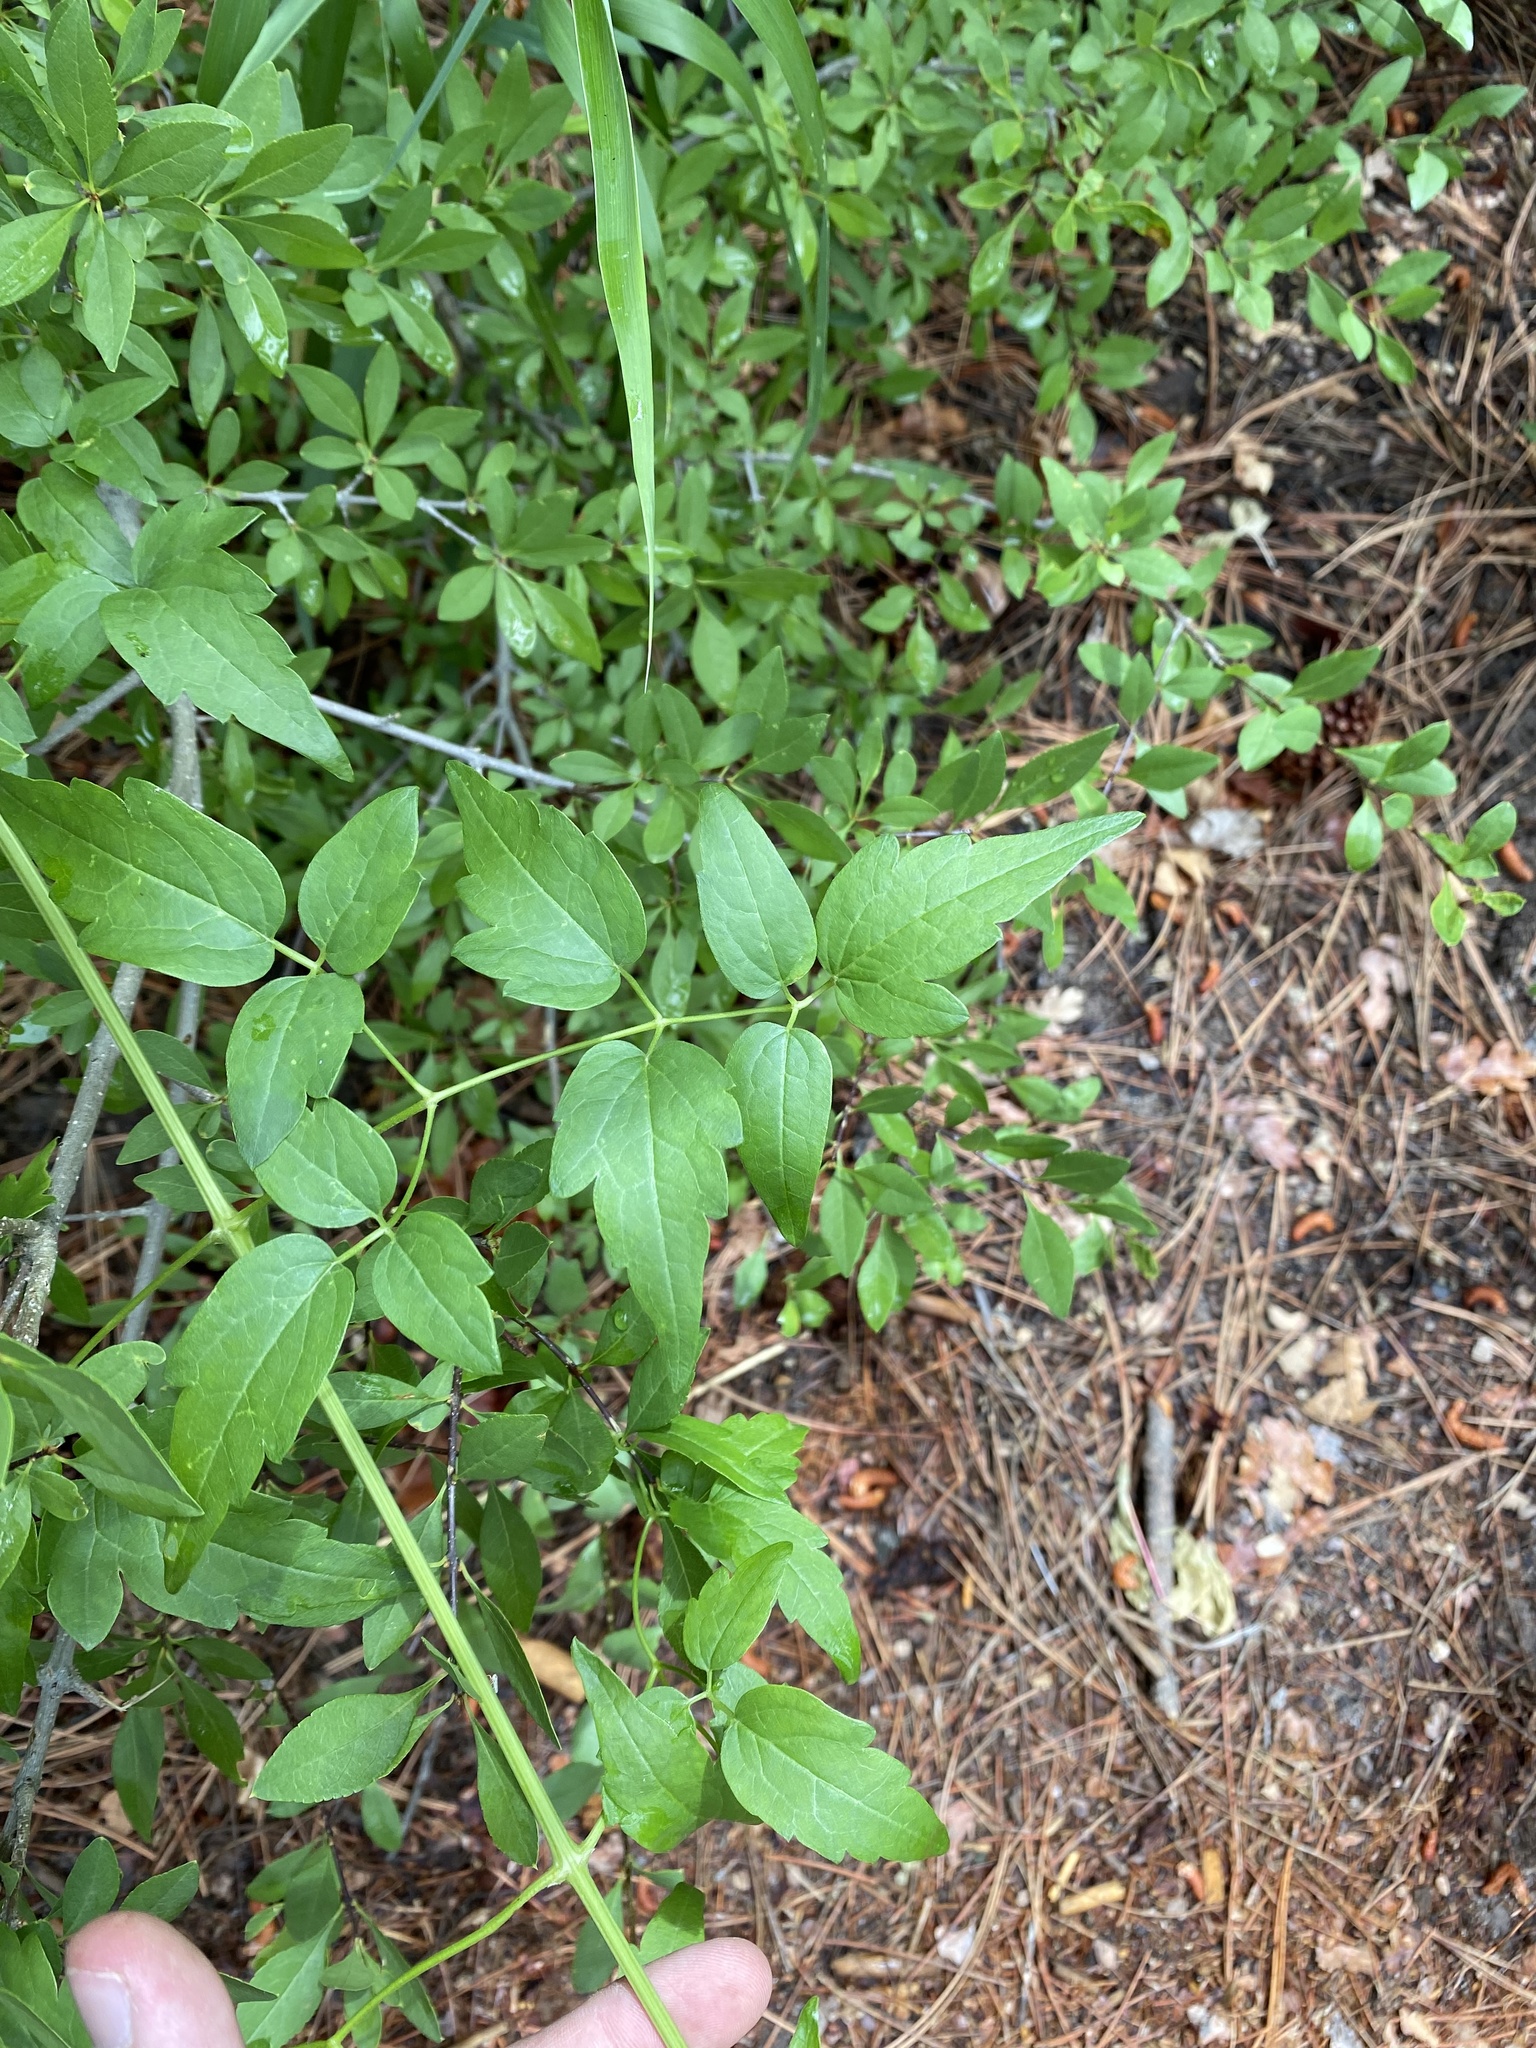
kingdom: Plantae
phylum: Tracheophyta
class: Magnoliopsida
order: Ranunculales
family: Ranunculaceae
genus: Clematis
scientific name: Clematis ligusticifolia
